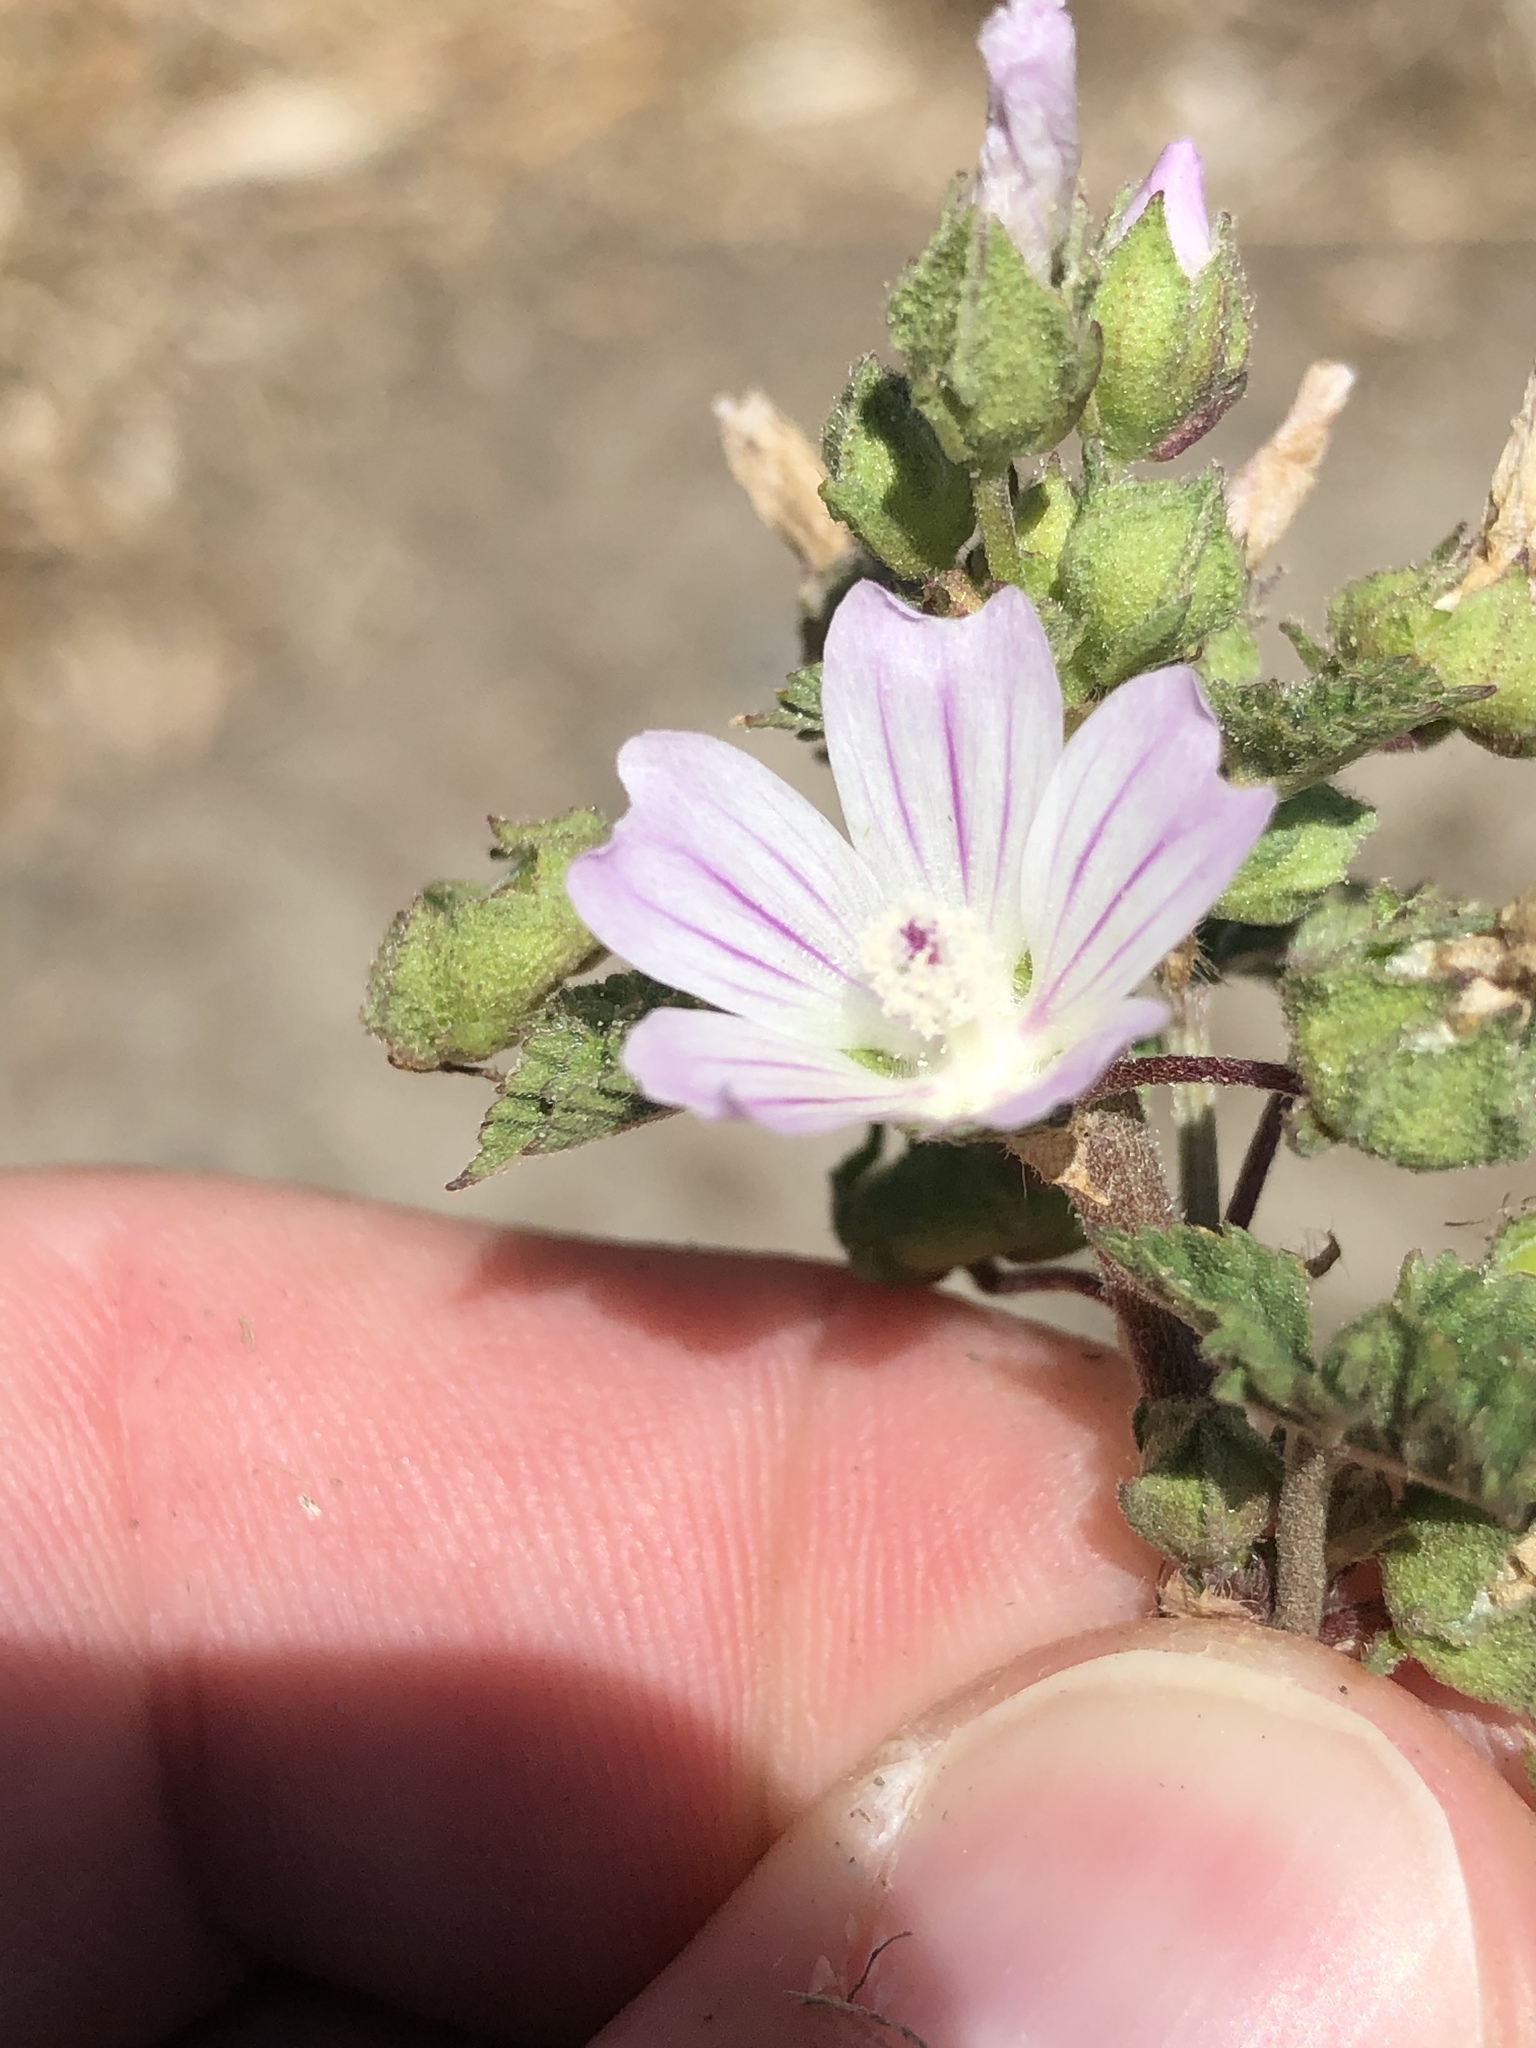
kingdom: Plantae
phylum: Tracheophyta
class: Magnoliopsida
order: Malvales
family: Malvaceae
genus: Malva
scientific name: Malva neglecta
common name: Common mallow
